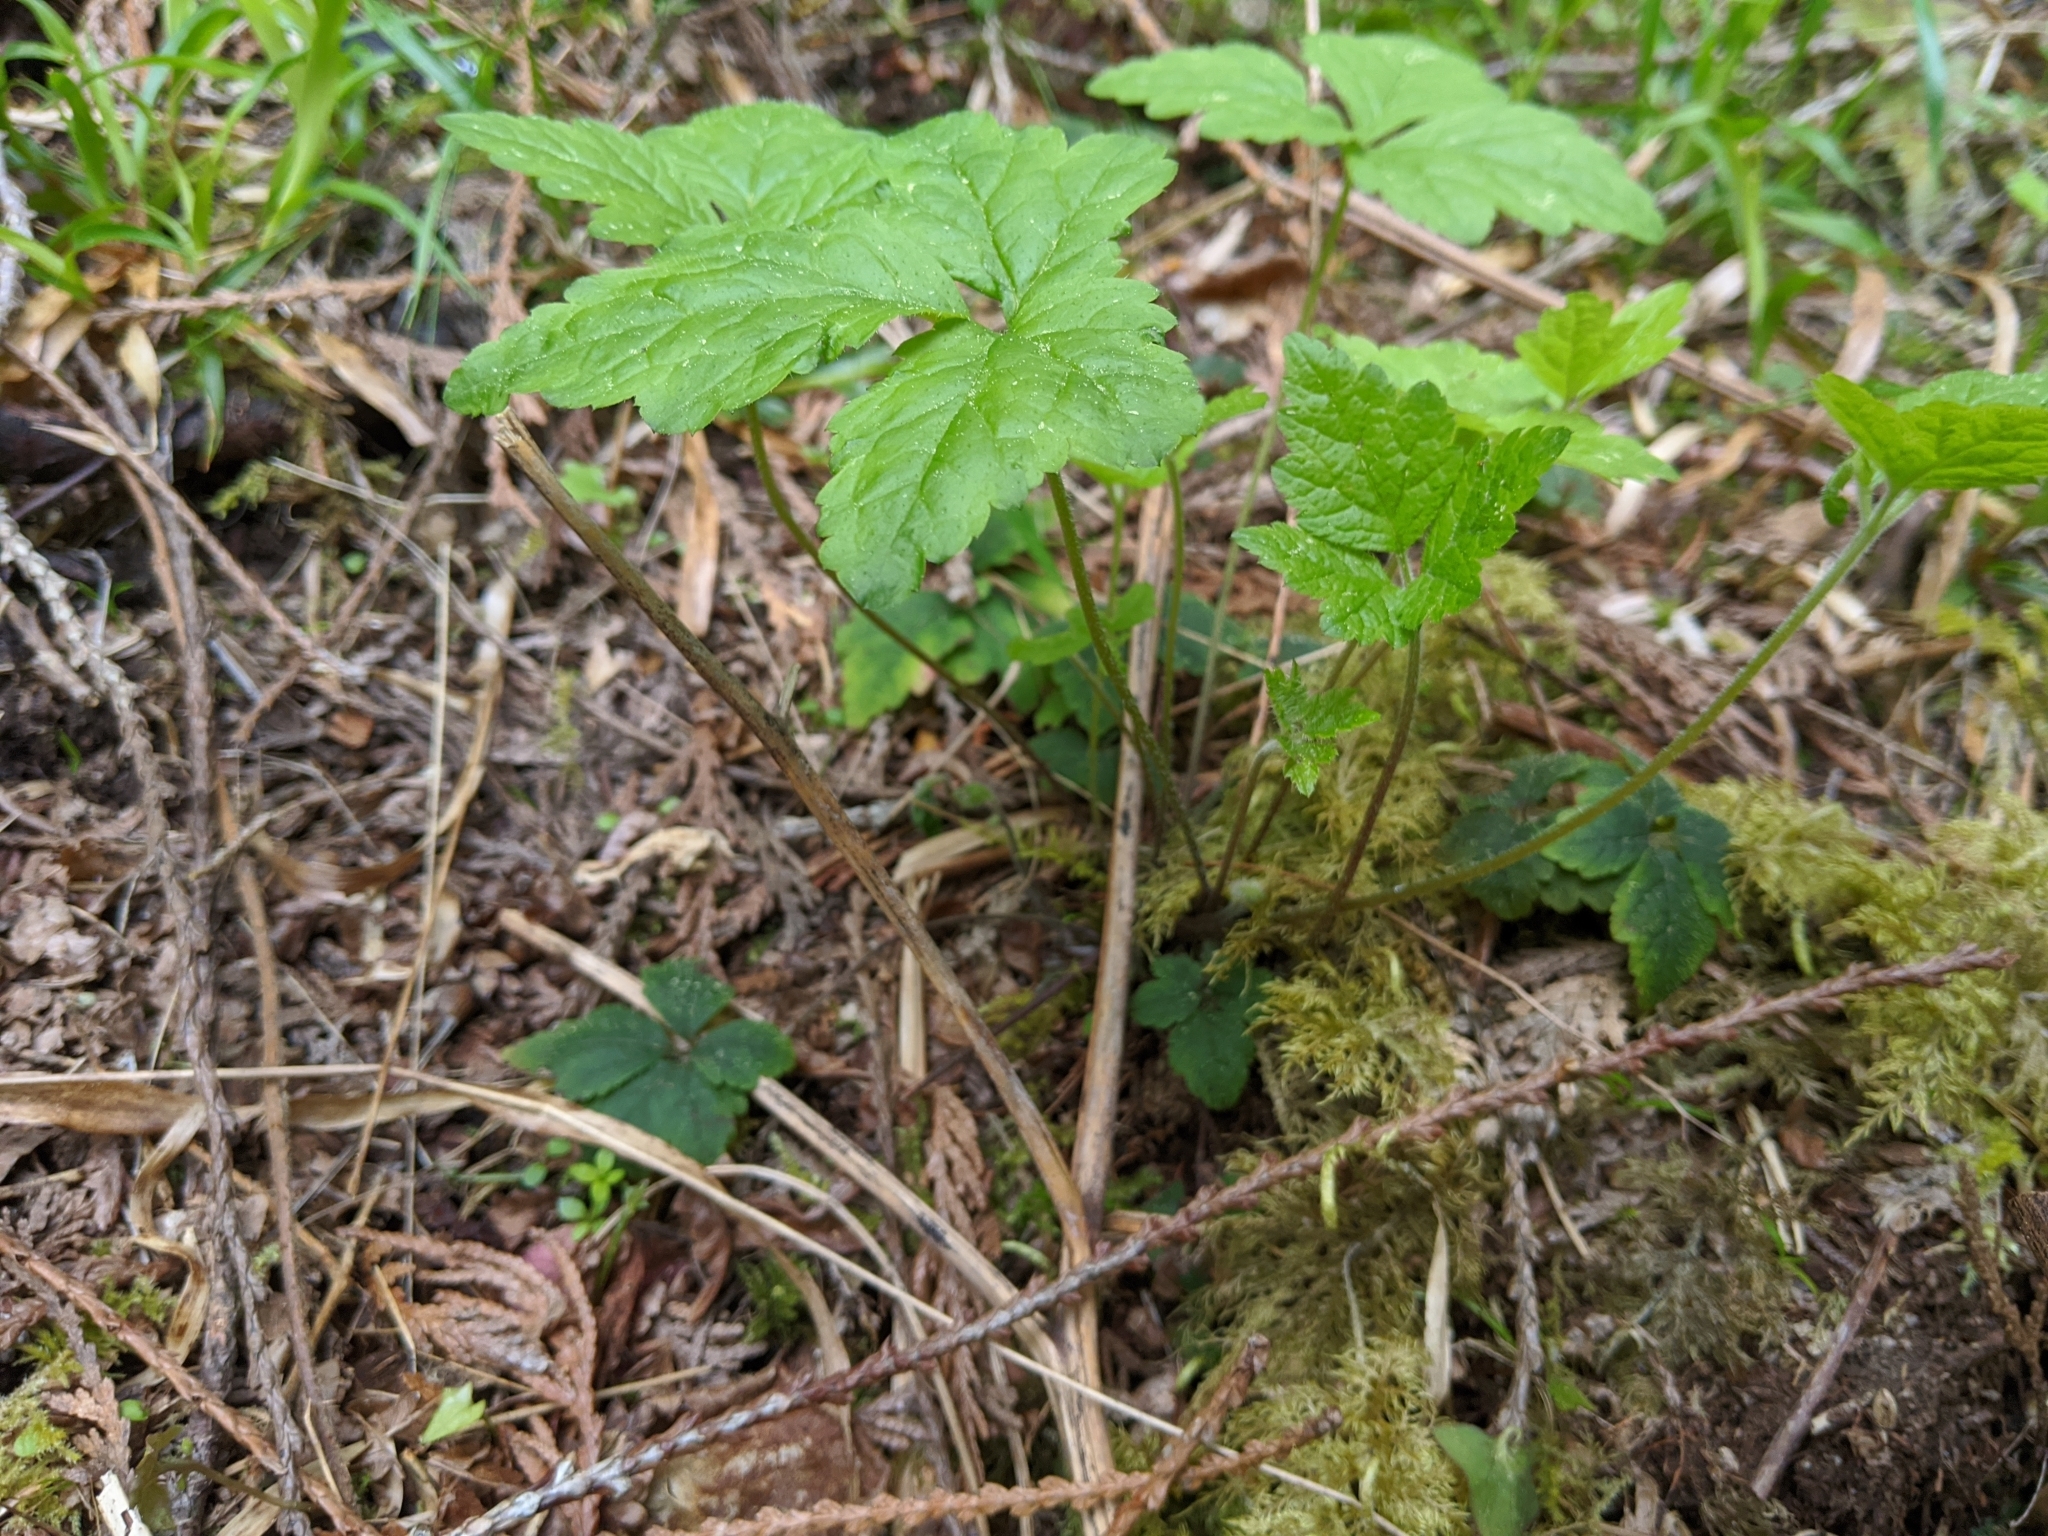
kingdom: Plantae
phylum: Tracheophyta
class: Magnoliopsida
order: Saxifragales
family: Saxifragaceae
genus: Tiarella
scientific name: Tiarella trifoliata
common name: Sugar-scoop
